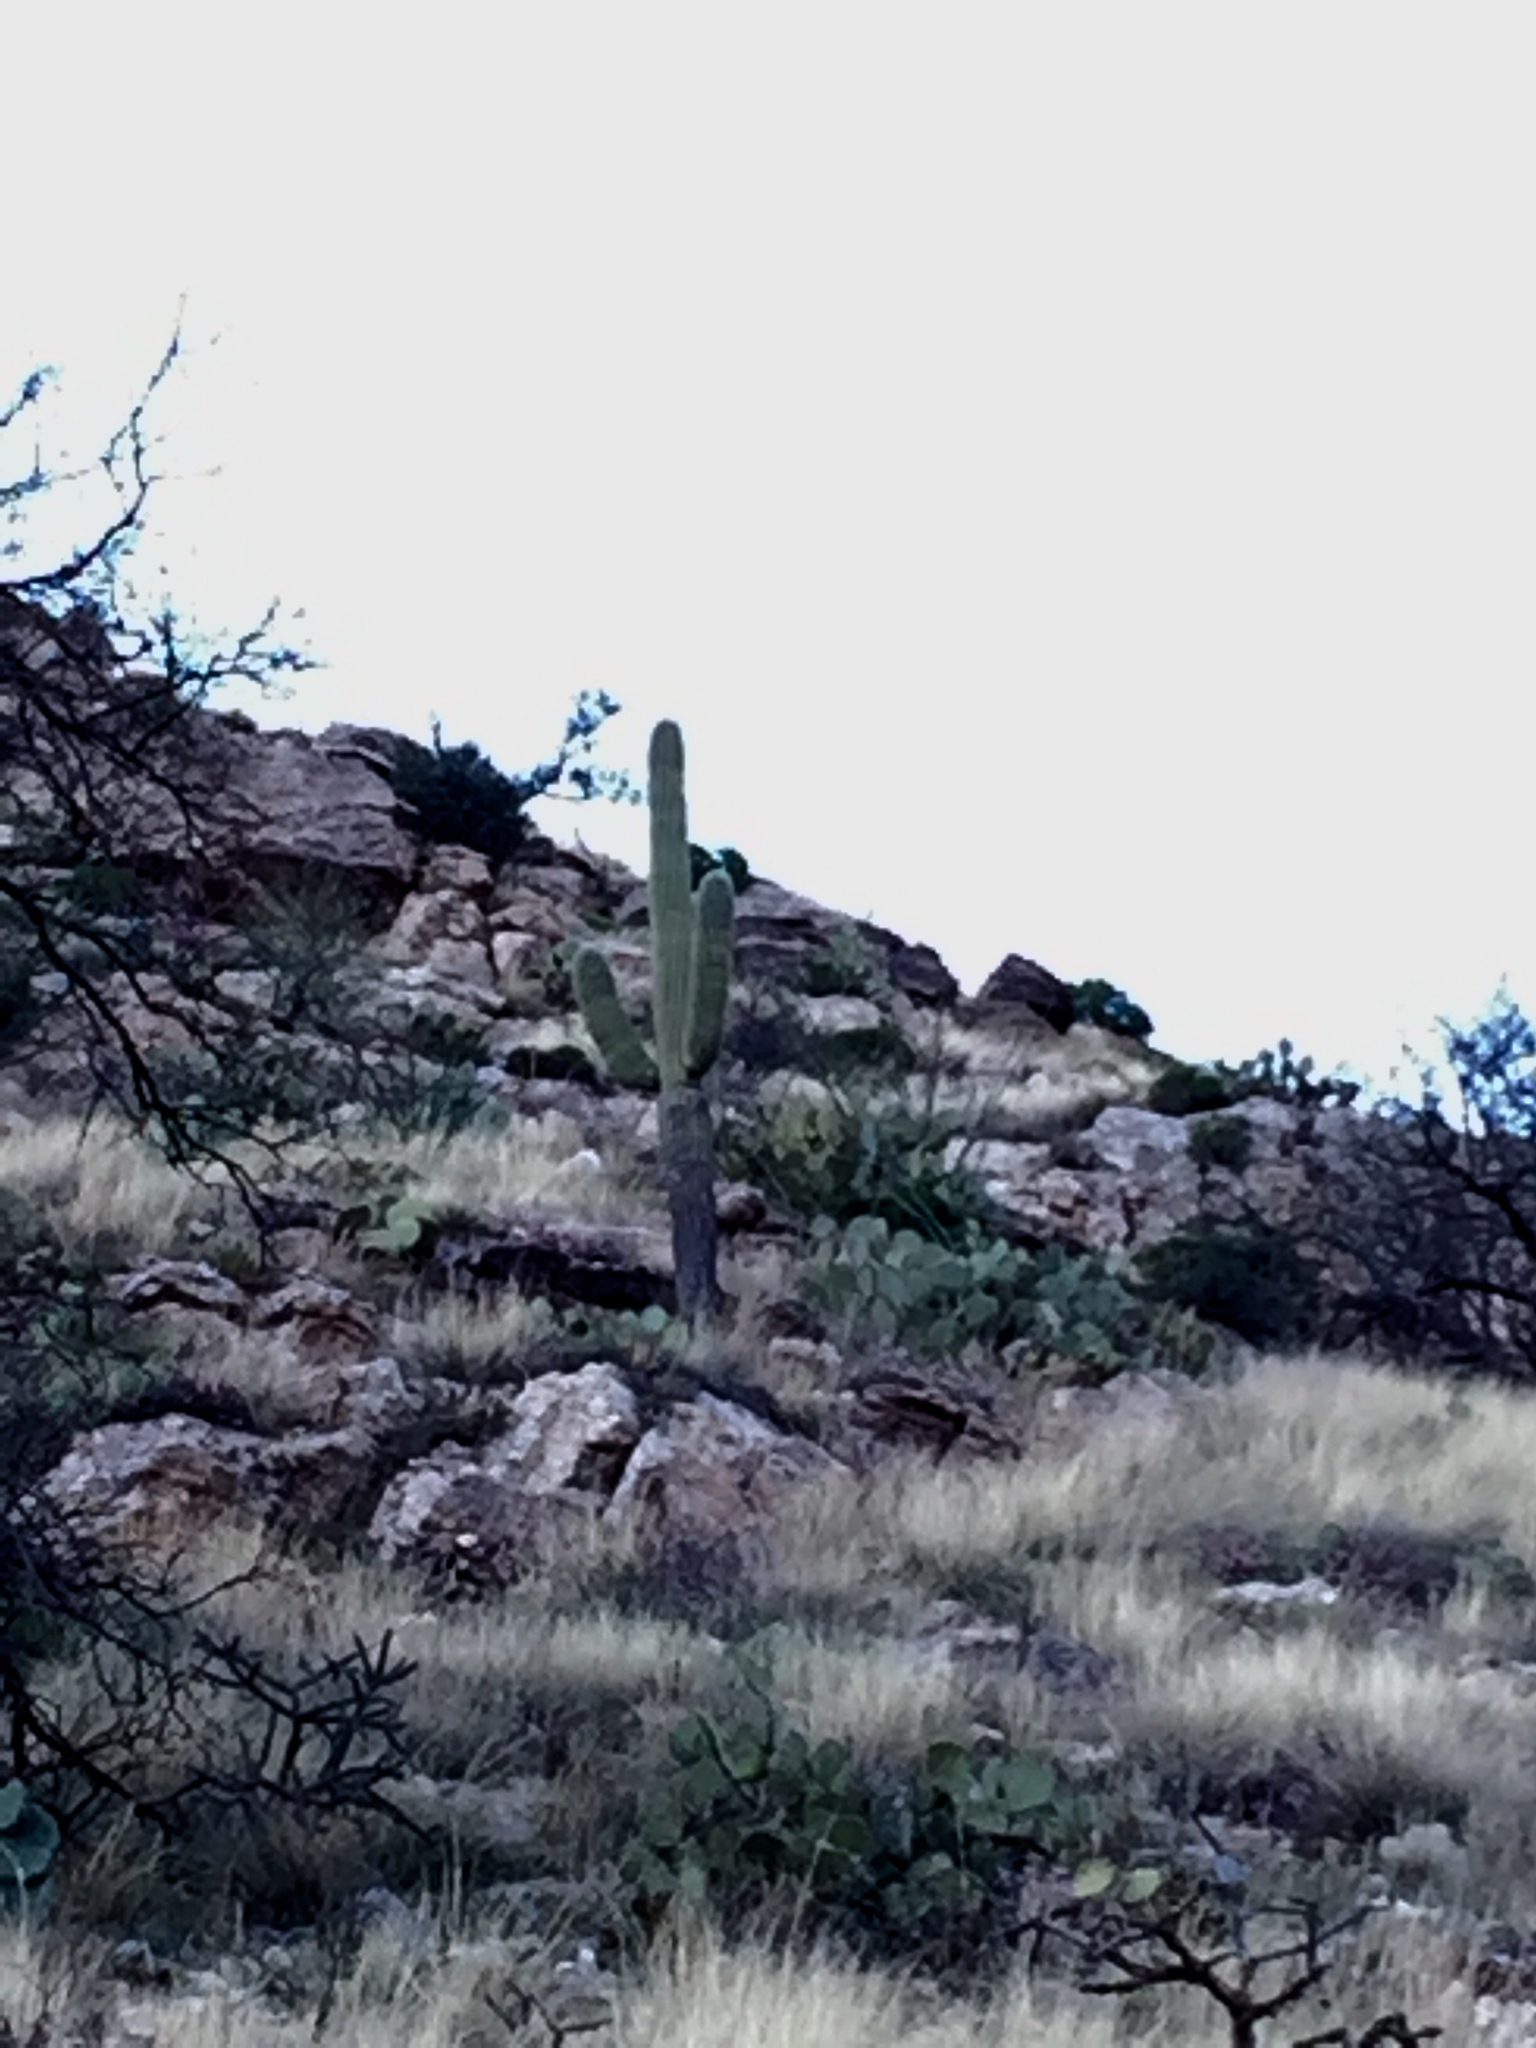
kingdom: Plantae
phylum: Tracheophyta
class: Magnoliopsida
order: Caryophyllales
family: Cactaceae
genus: Carnegiea
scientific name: Carnegiea gigantea
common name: Saguaro
